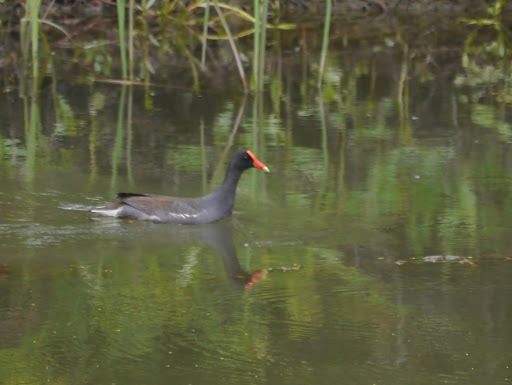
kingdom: Animalia
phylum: Chordata
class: Aves
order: Gruiformes
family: Rallidae
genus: Gallinula
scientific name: Gallinula chloropus
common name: Common moorhen
